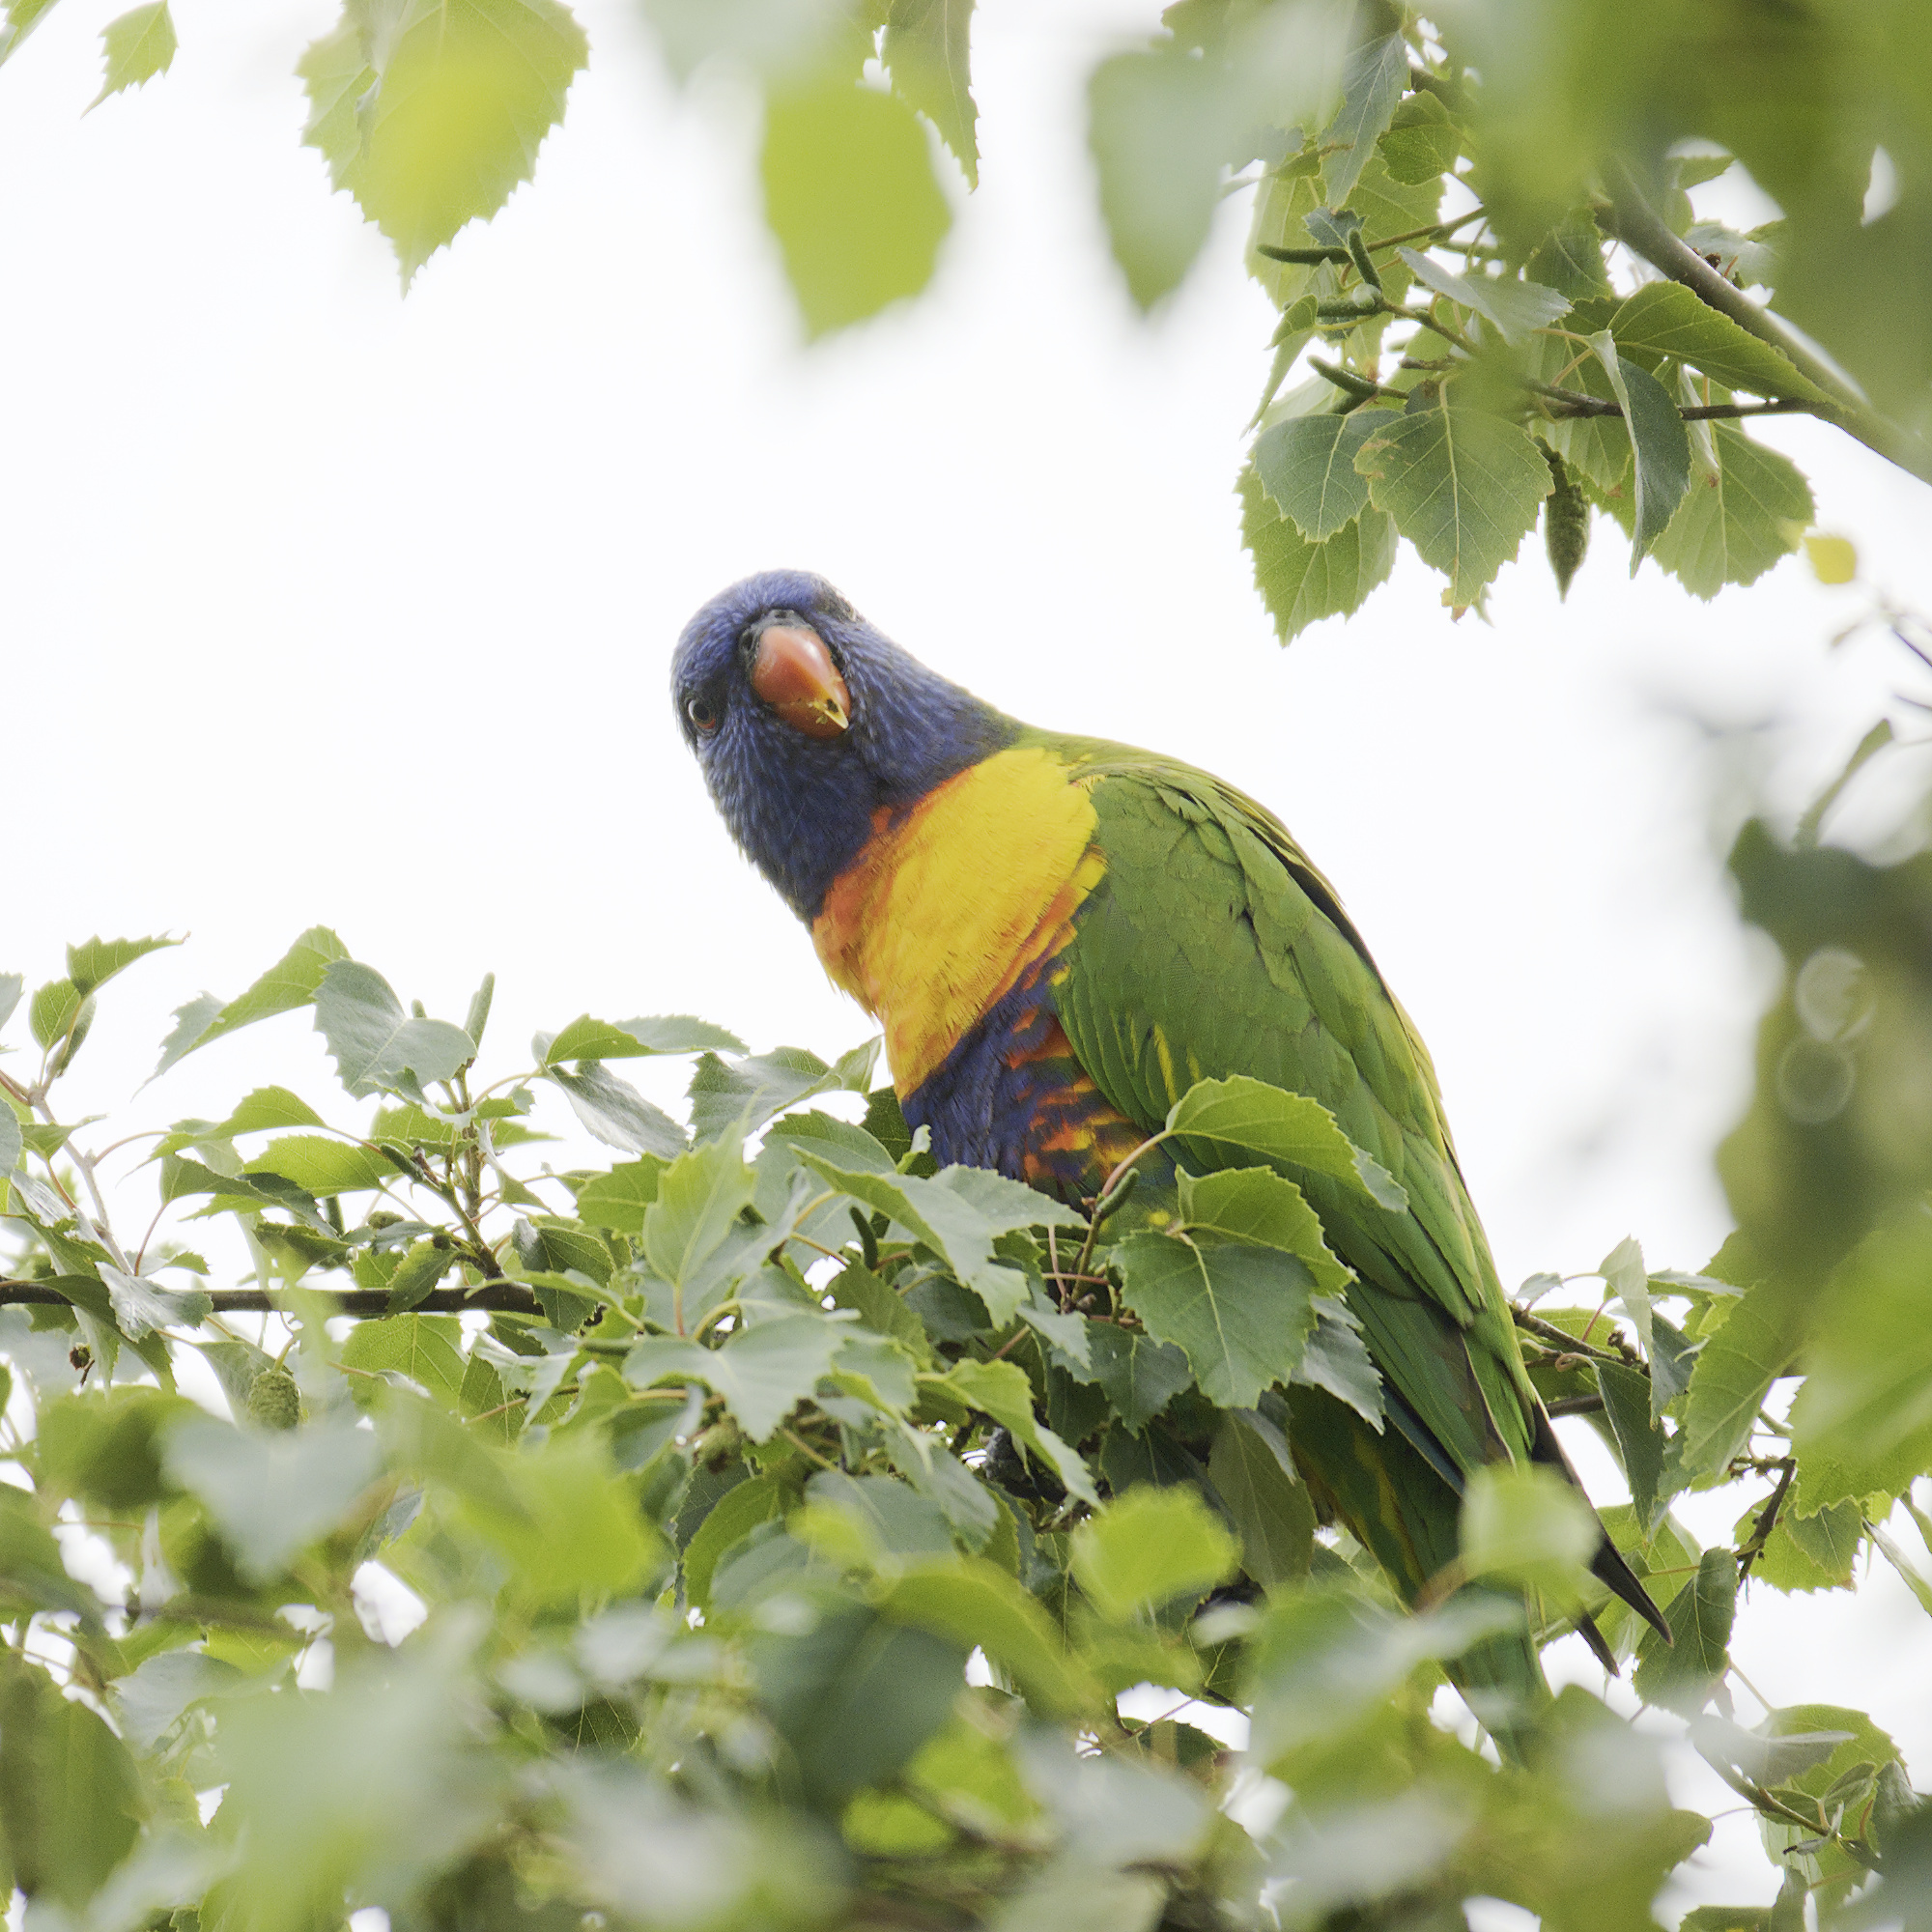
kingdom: Animalia
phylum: Chordata
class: Aves
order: Psittaciformes
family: Psittacidae
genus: Trichoglossus
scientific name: Trichoglossus haematodus
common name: Coconut lorikeet
